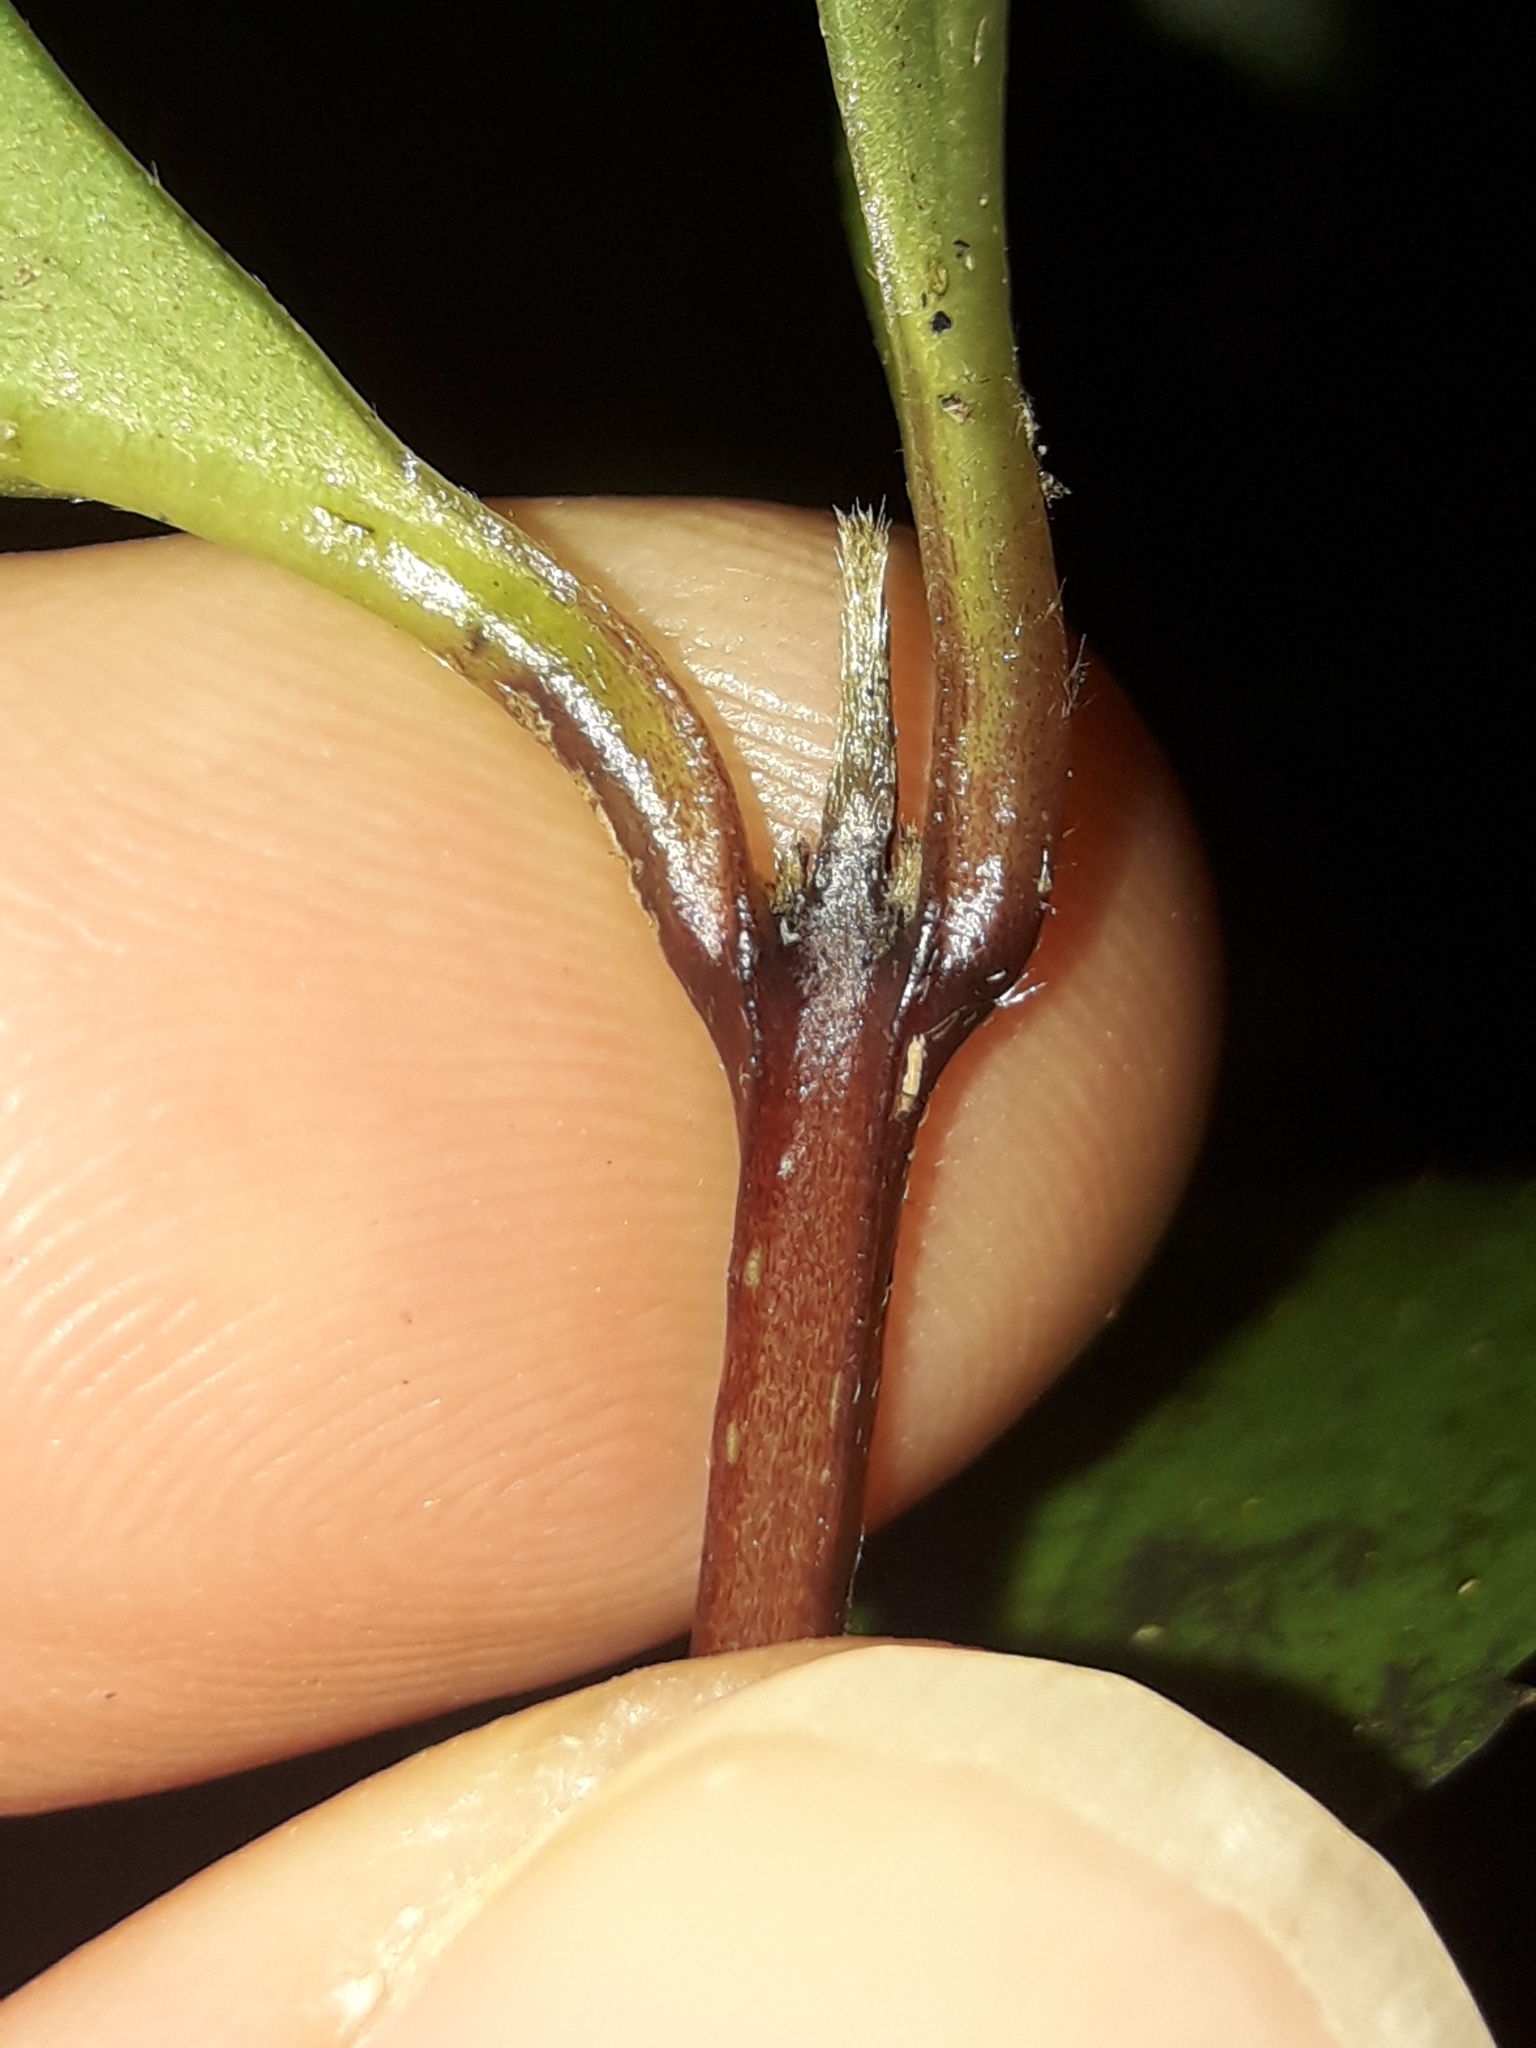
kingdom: Plantae
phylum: Tracheophyta
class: Magnoliopsida
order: Laurales
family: Atherospermataceae
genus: Laurelia
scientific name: Laurelia novae-zelandiae
